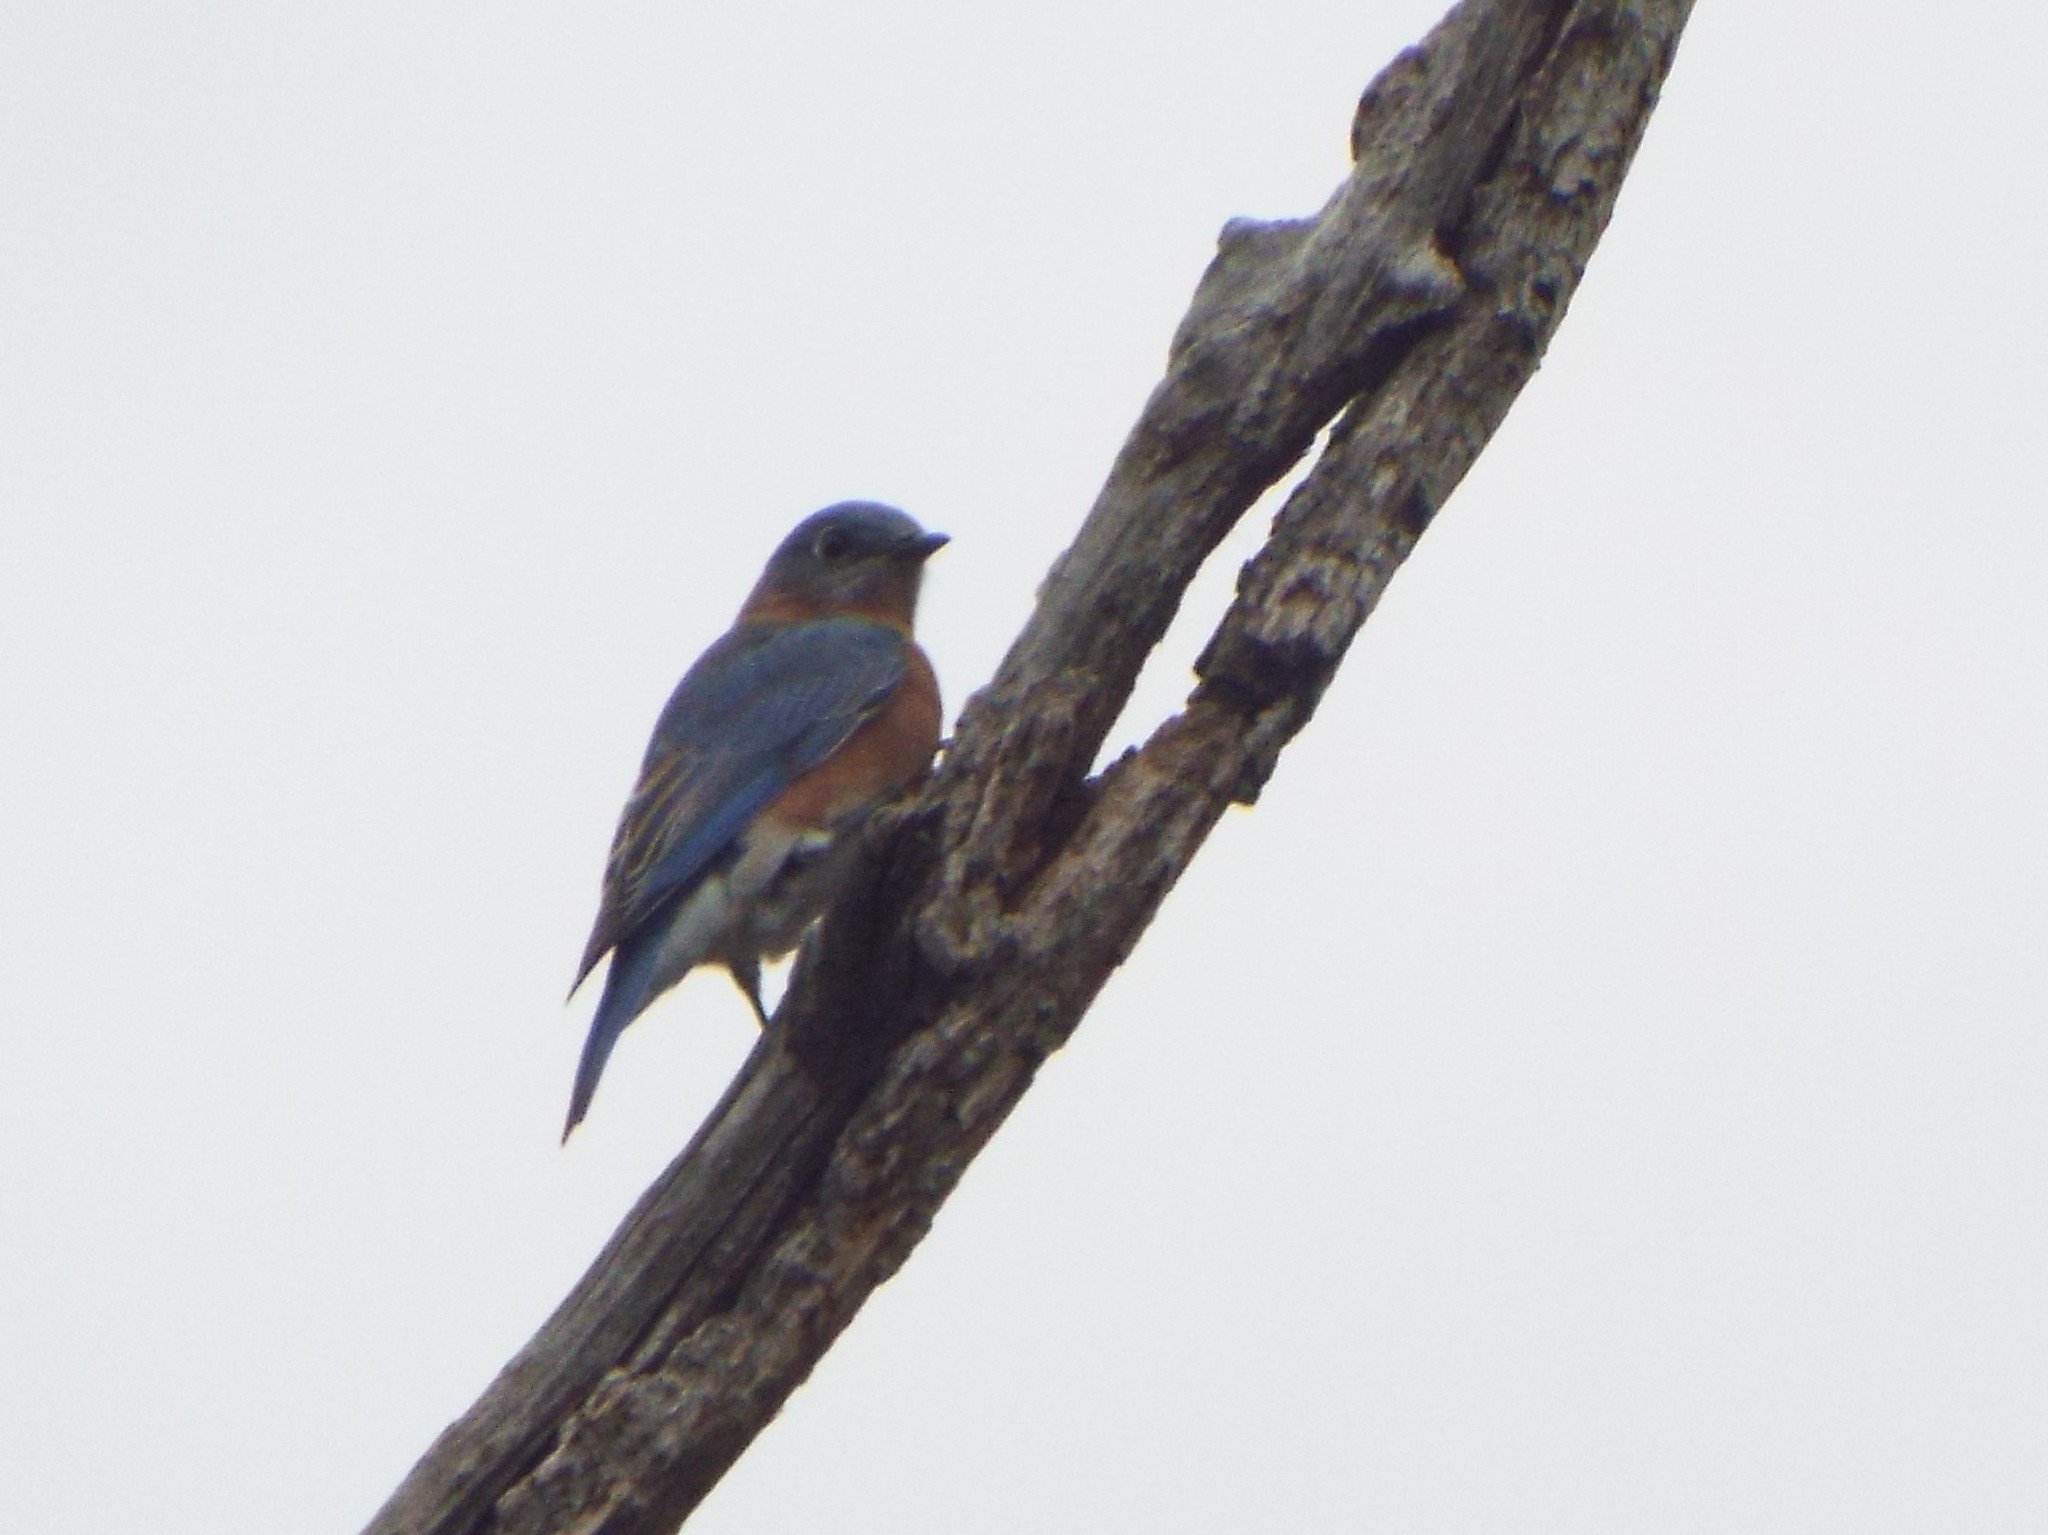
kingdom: Animalia
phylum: Chordata
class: Aves
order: Passeriformes
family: Turdidae
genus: Sialia
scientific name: Sialia sialis
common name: Eastern bluebird
